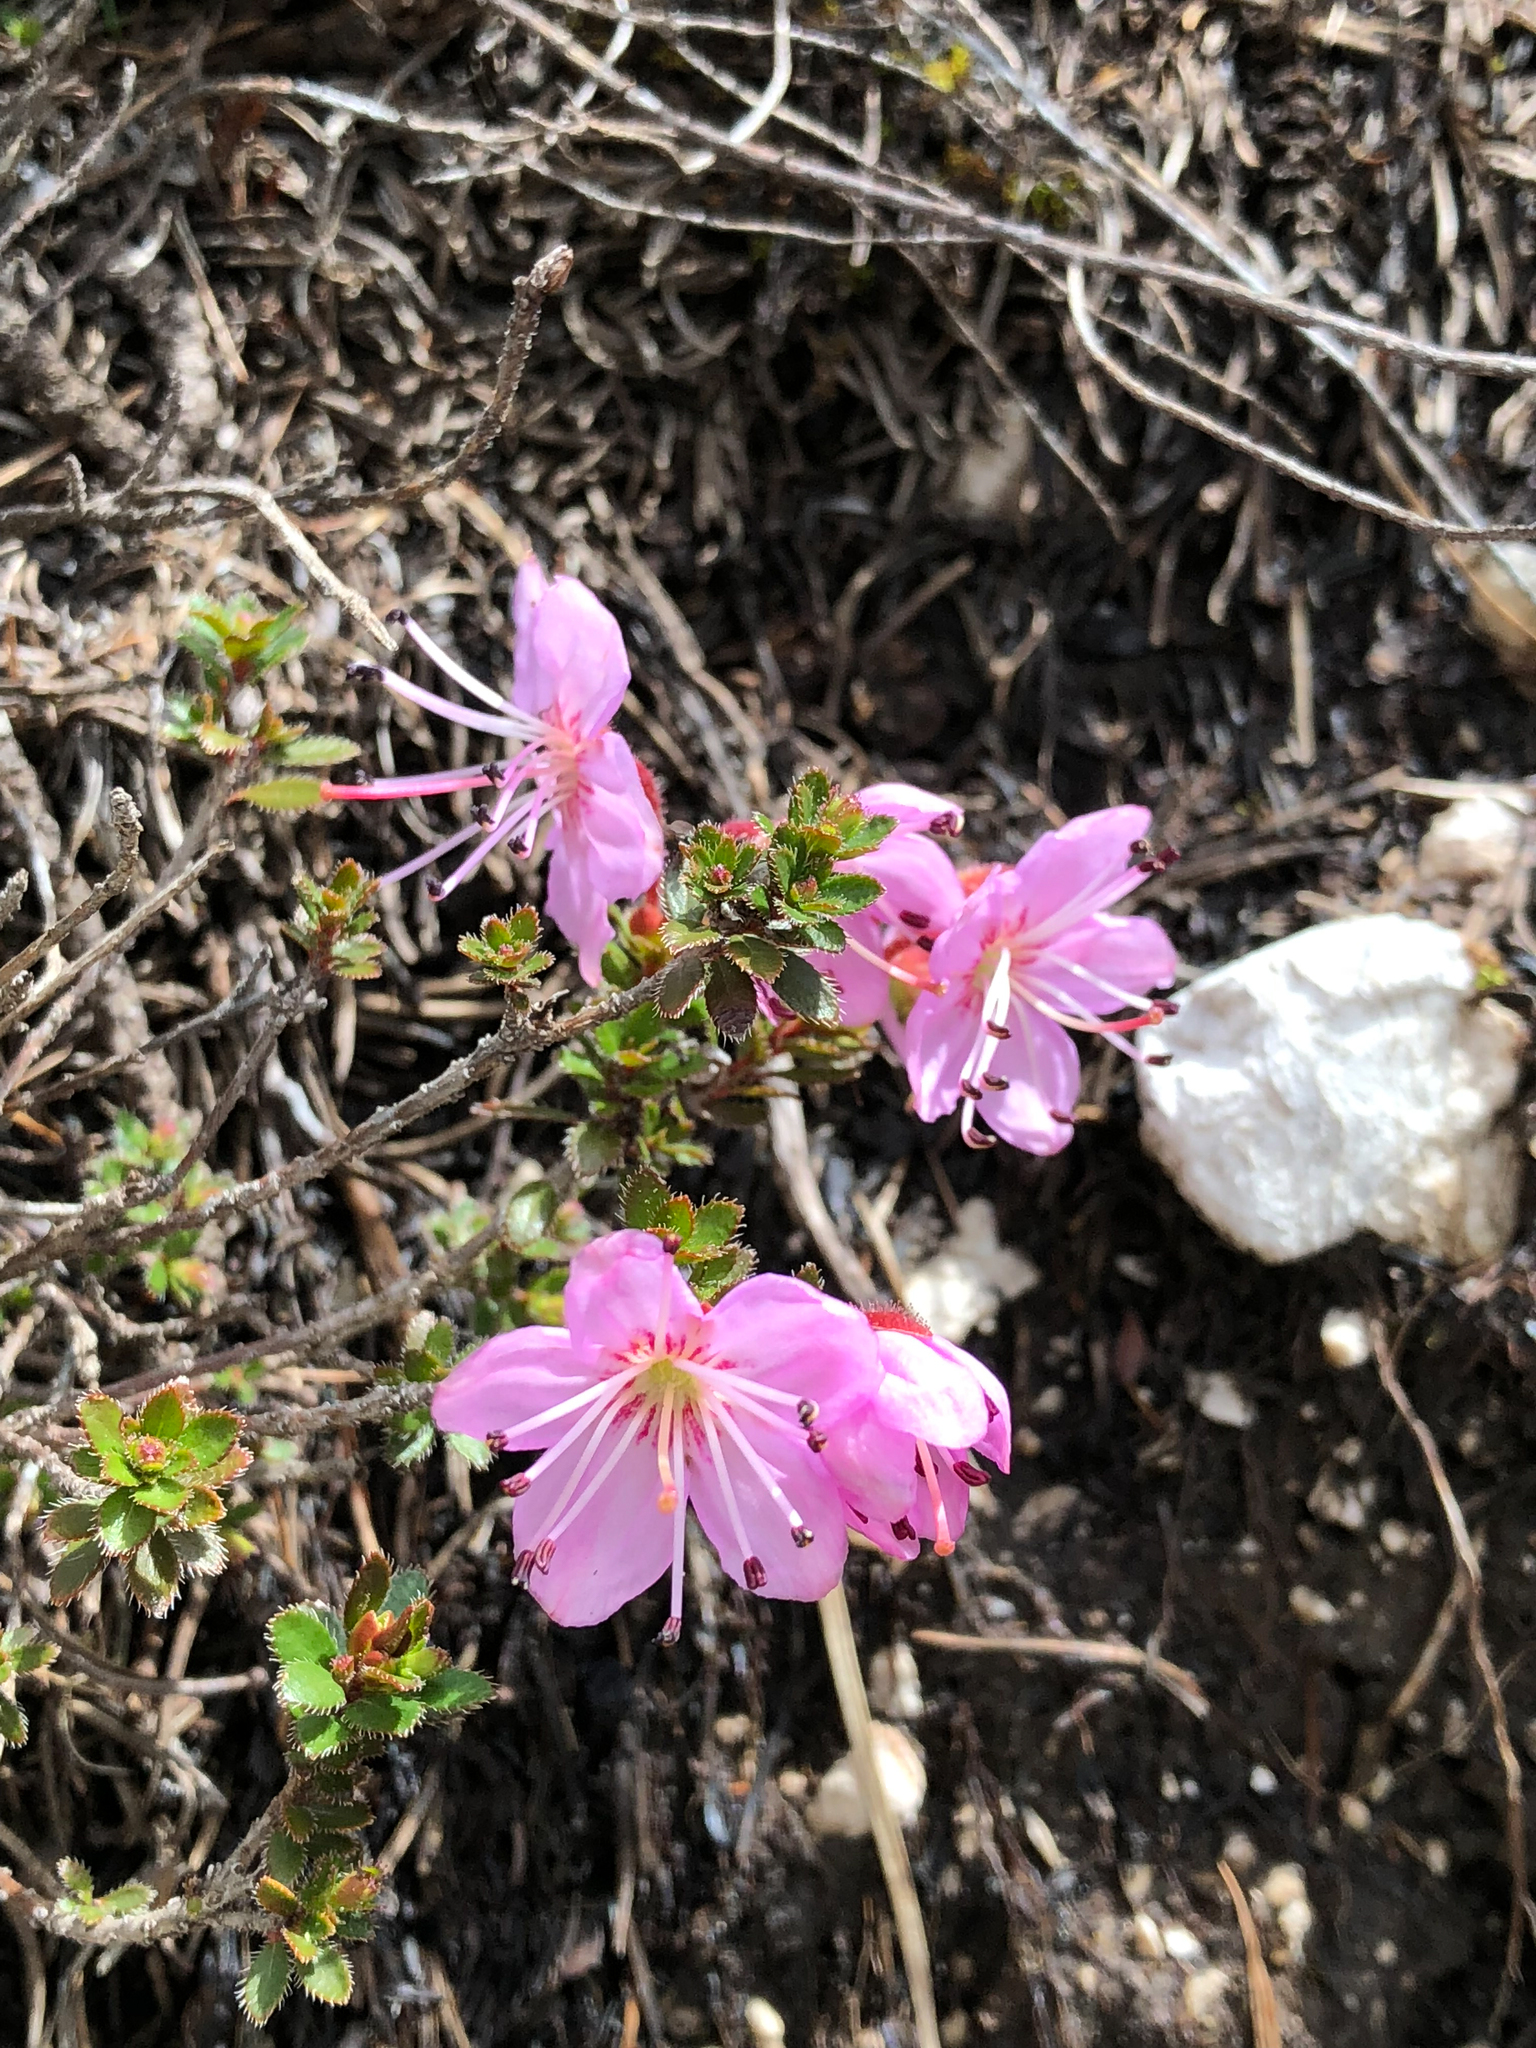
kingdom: Plantae
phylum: Tracheophyta
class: Magnoliopsida
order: Ericales
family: Ericaceae
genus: Rhodothamnus
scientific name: Rhodothamnus chamaecistus
